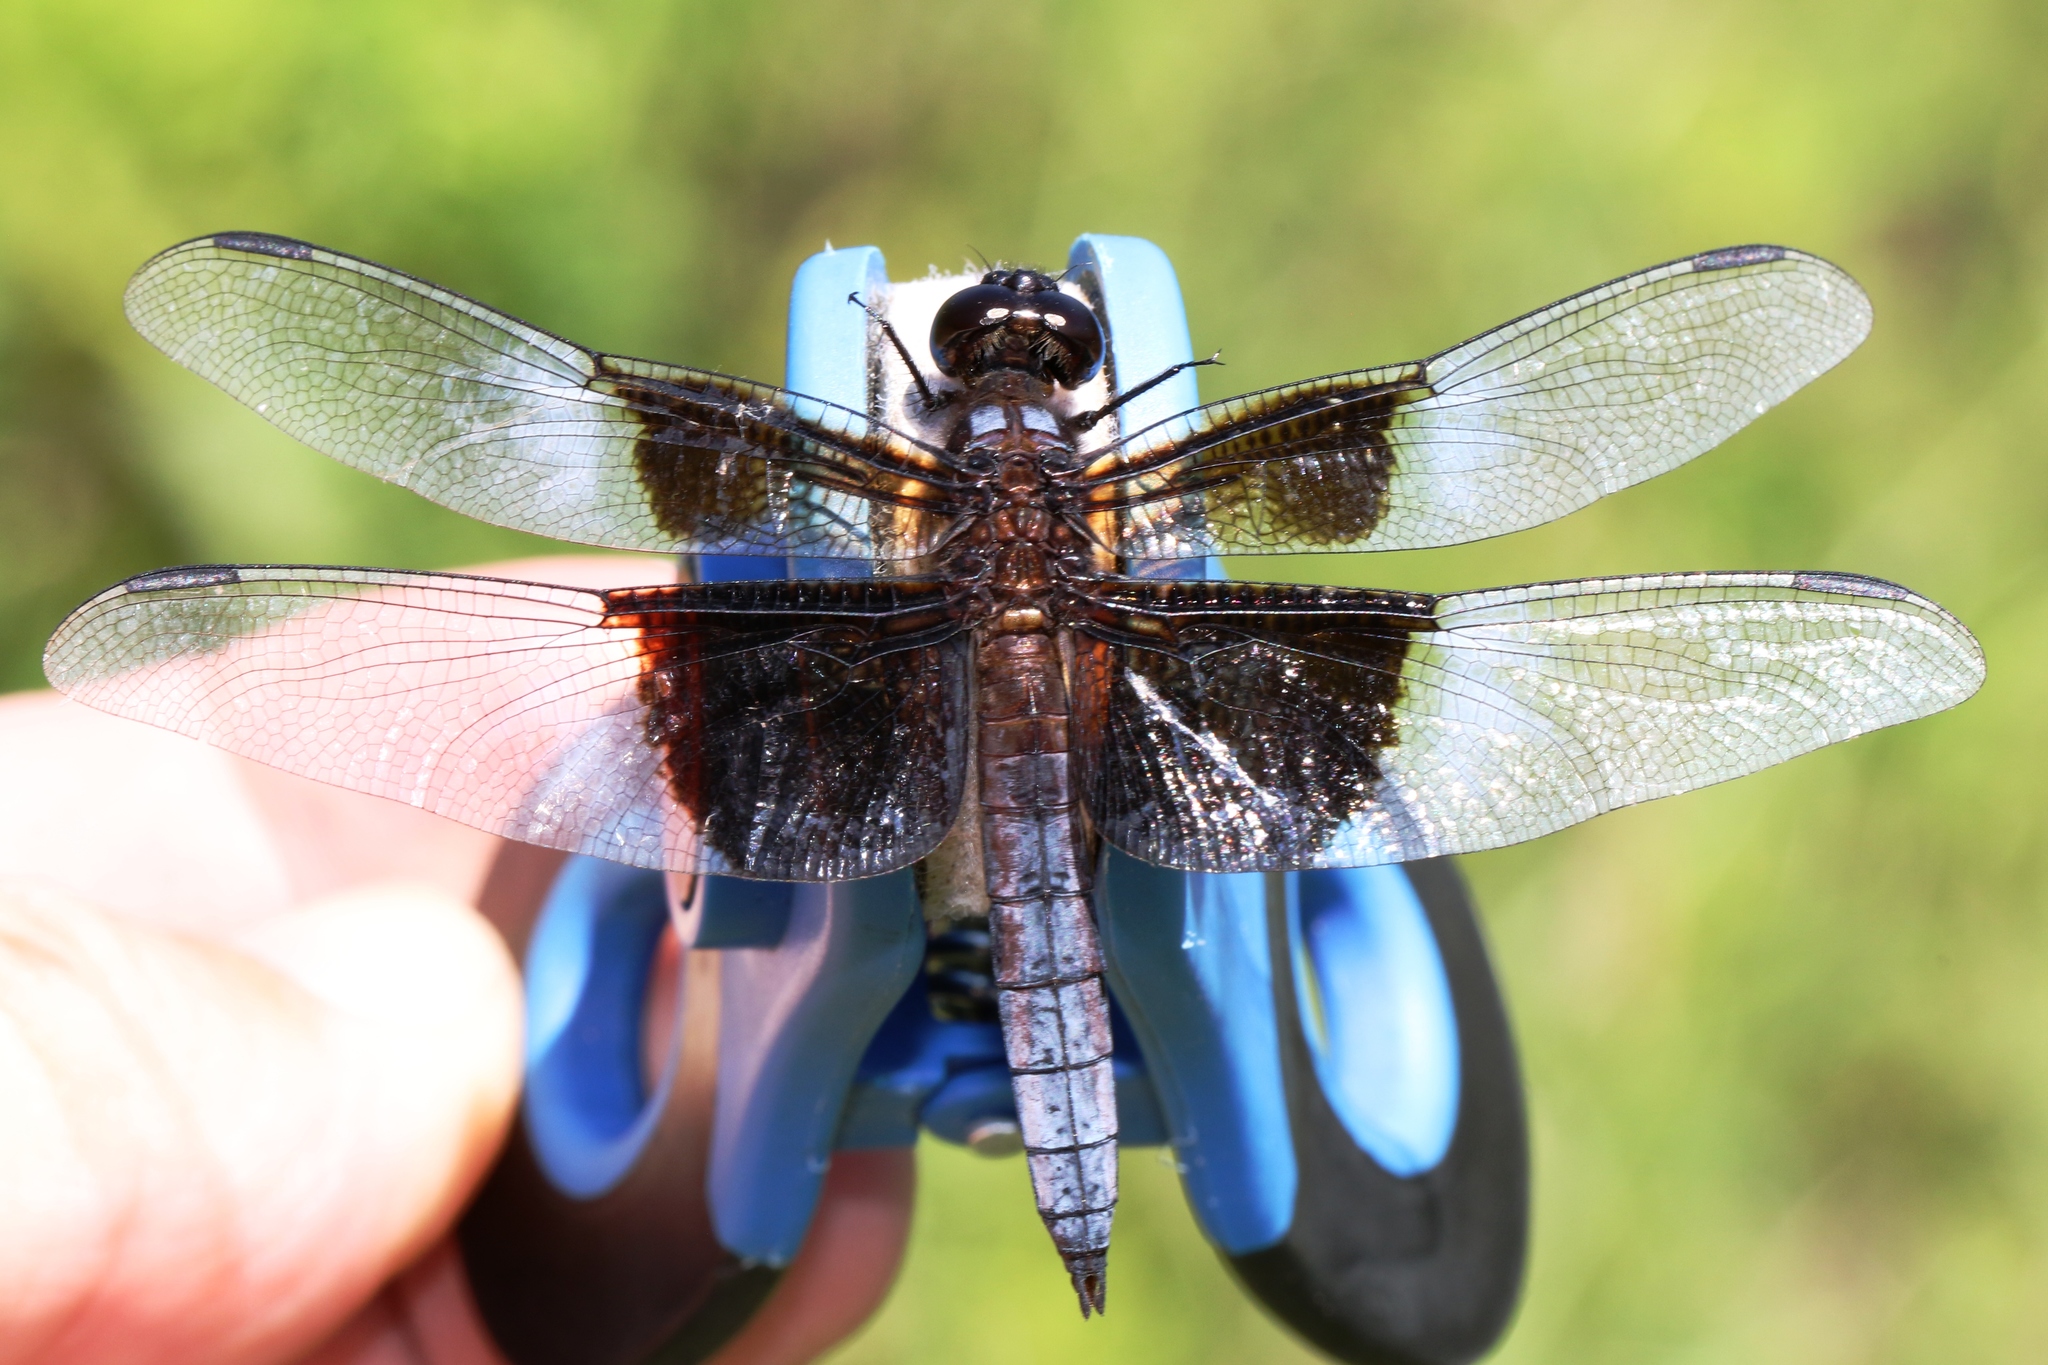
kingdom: Animalia
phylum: Arthropoda
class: Insecta
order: Odonata
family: Libellulidae
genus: Libellula
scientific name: Libellula luctuosa
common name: Widow skimmer
